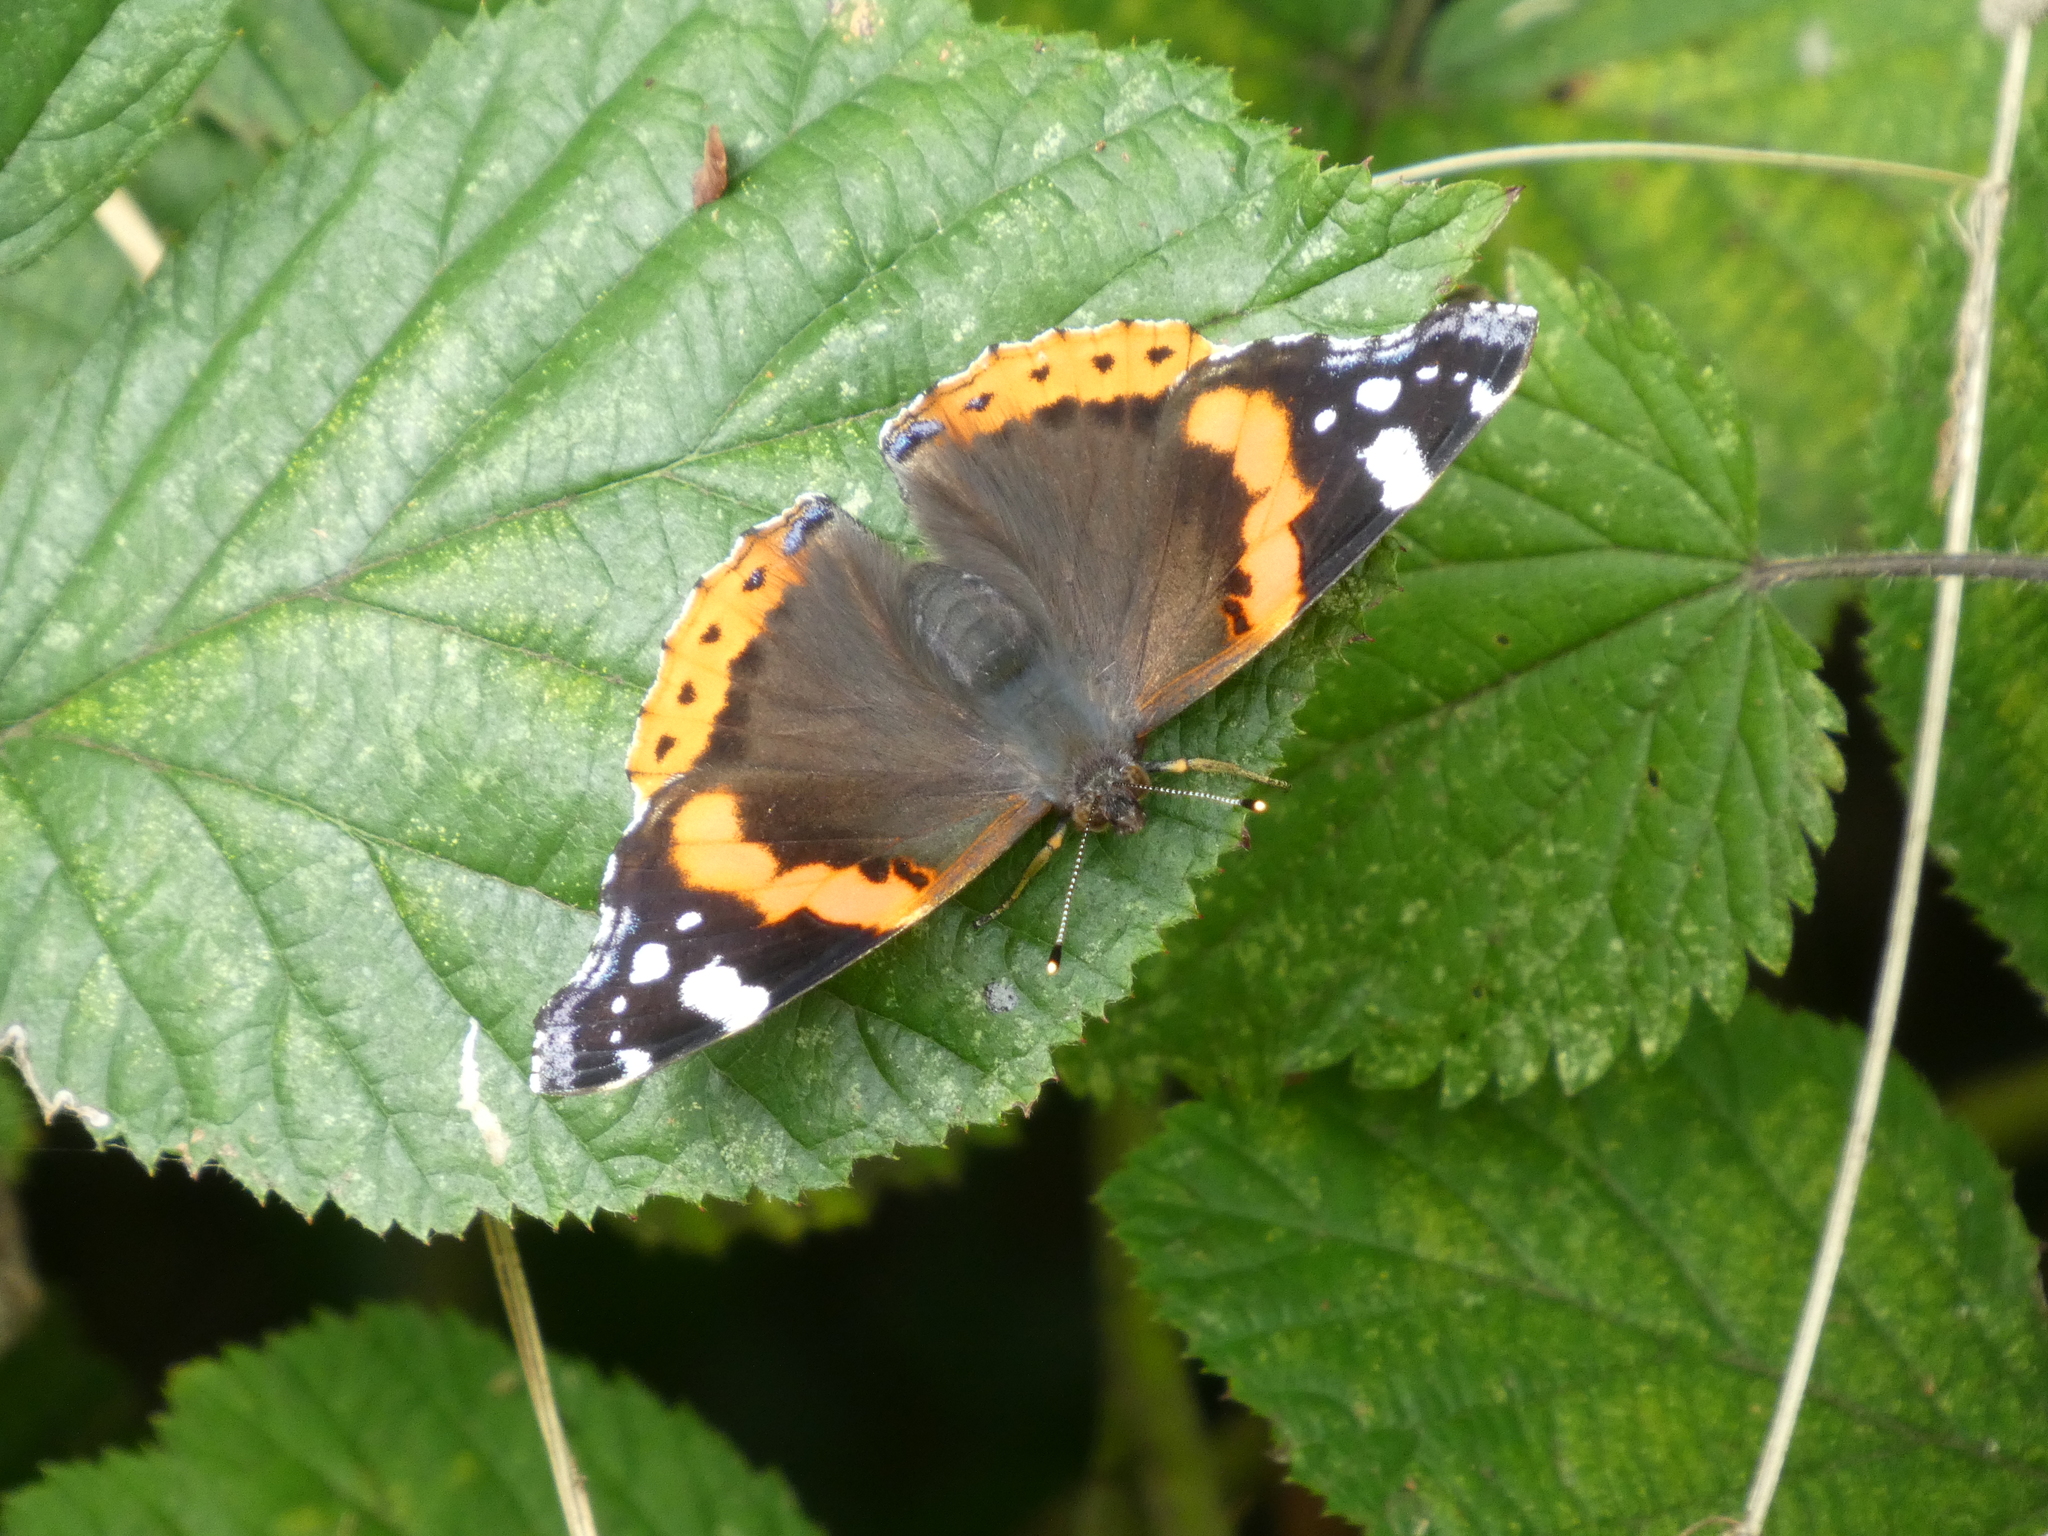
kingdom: Animalia
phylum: Arthropoda
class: Insecta
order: Lepidoptera
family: Nymphalidae
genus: Vanessa
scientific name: Vanessa atalanta
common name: Red admiral
